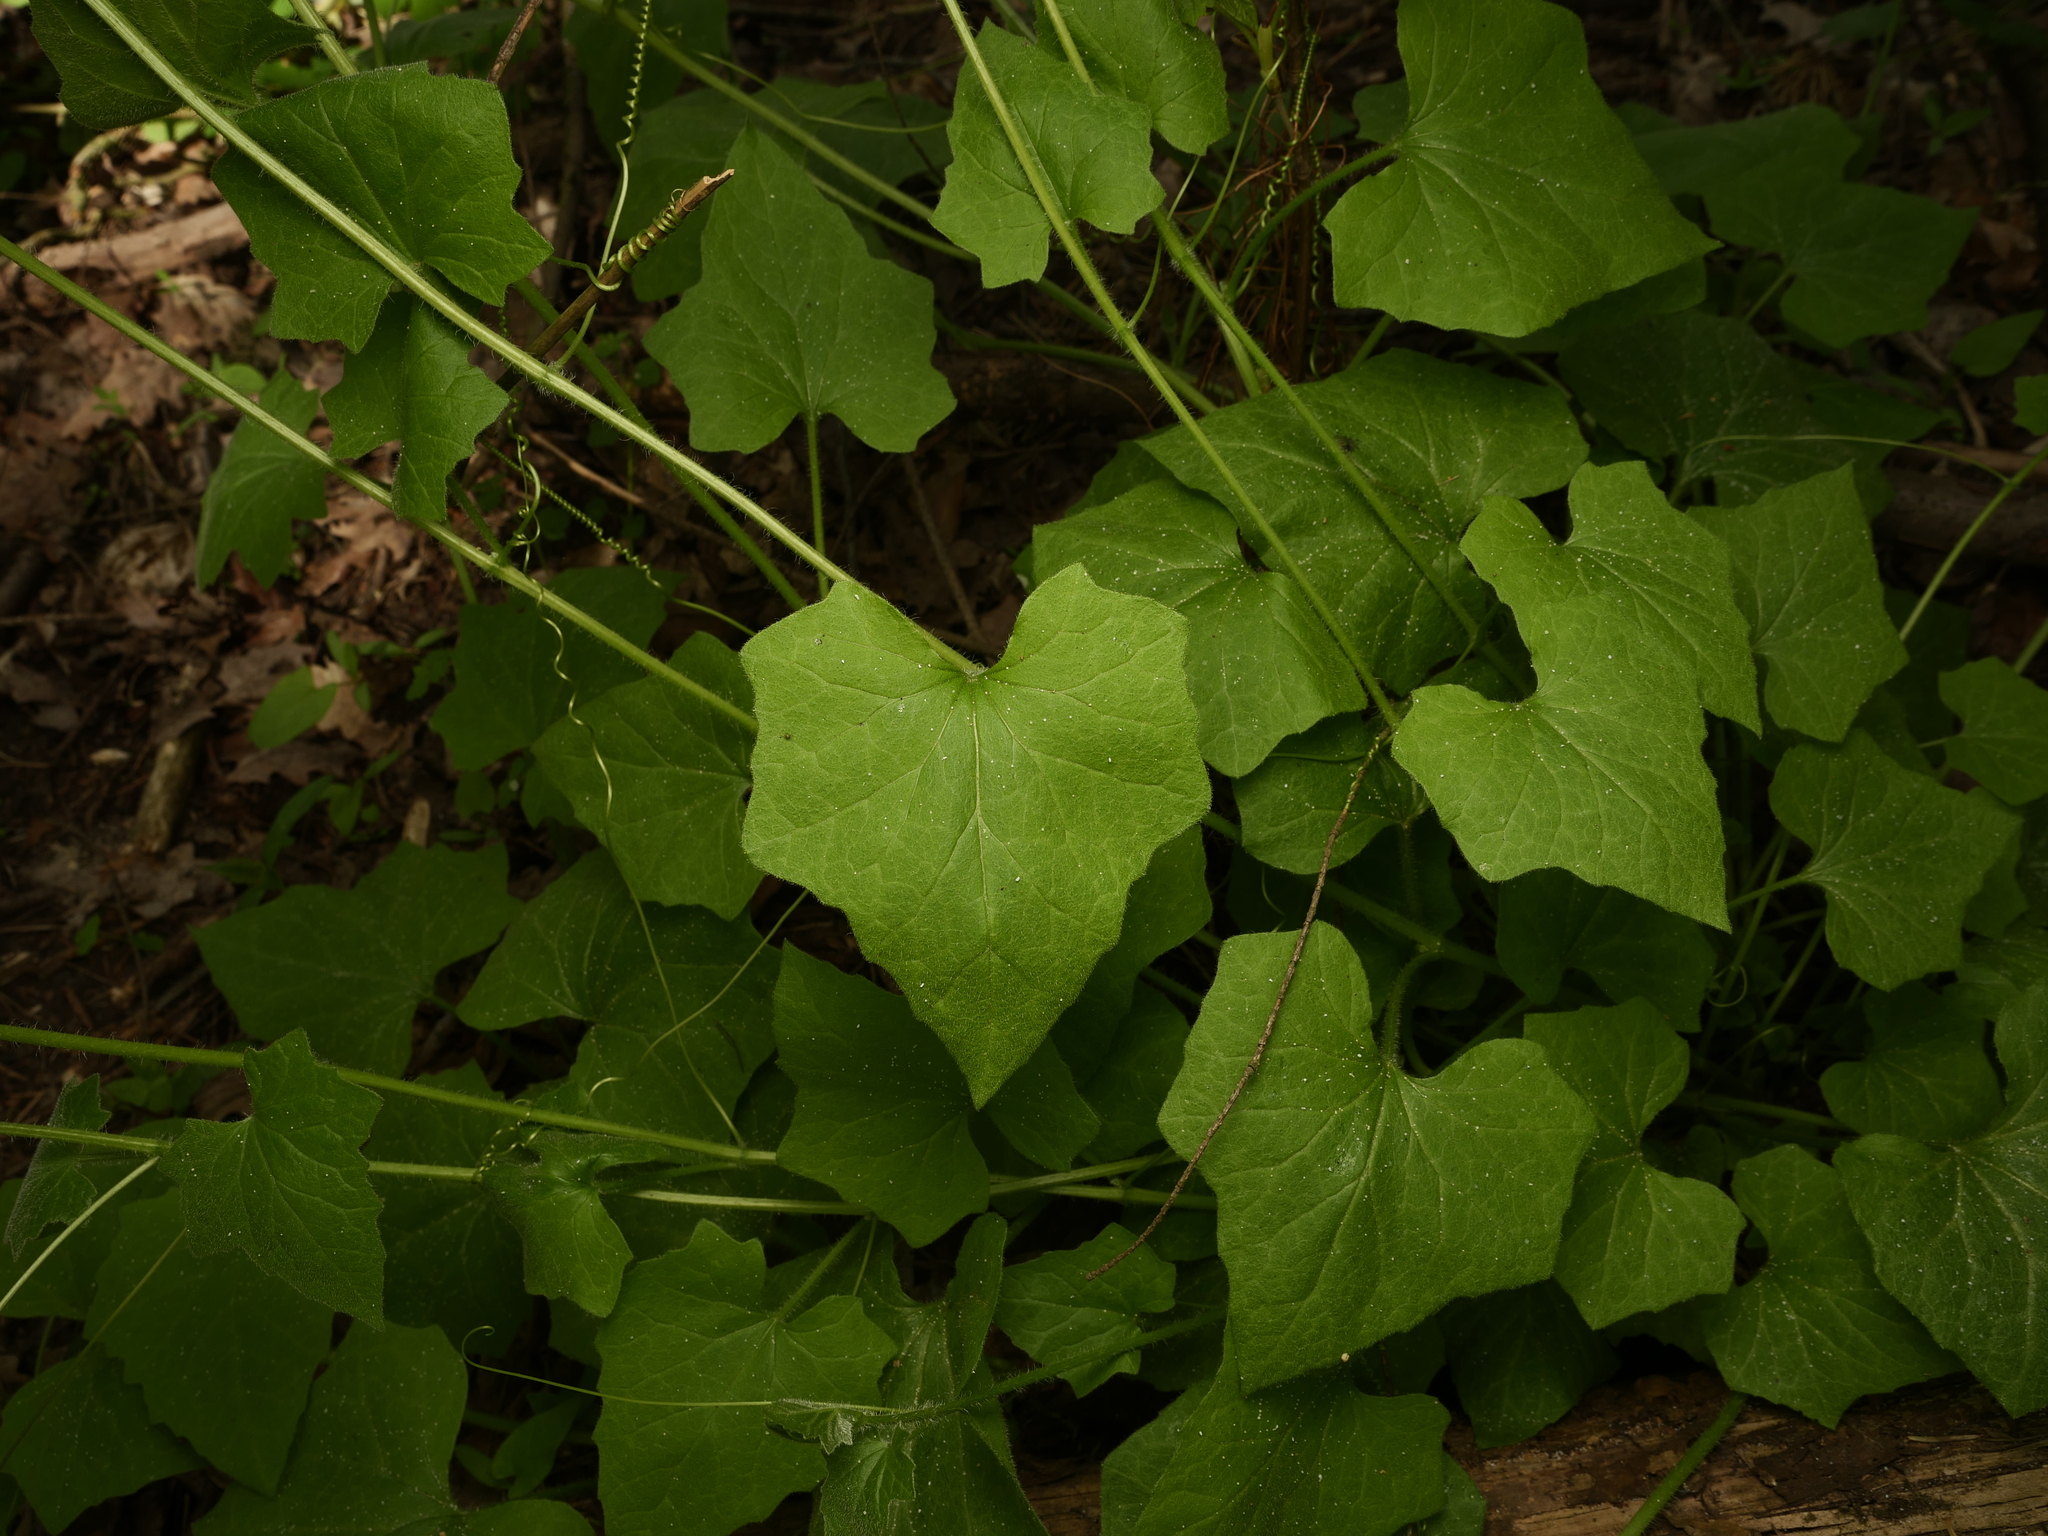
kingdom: Plantae
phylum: Tracheophyta
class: Magnoliopsida
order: Cucurbitales
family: Cucurbitaceae
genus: Bryonia
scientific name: Bryonia cretica
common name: Cretan bryony
